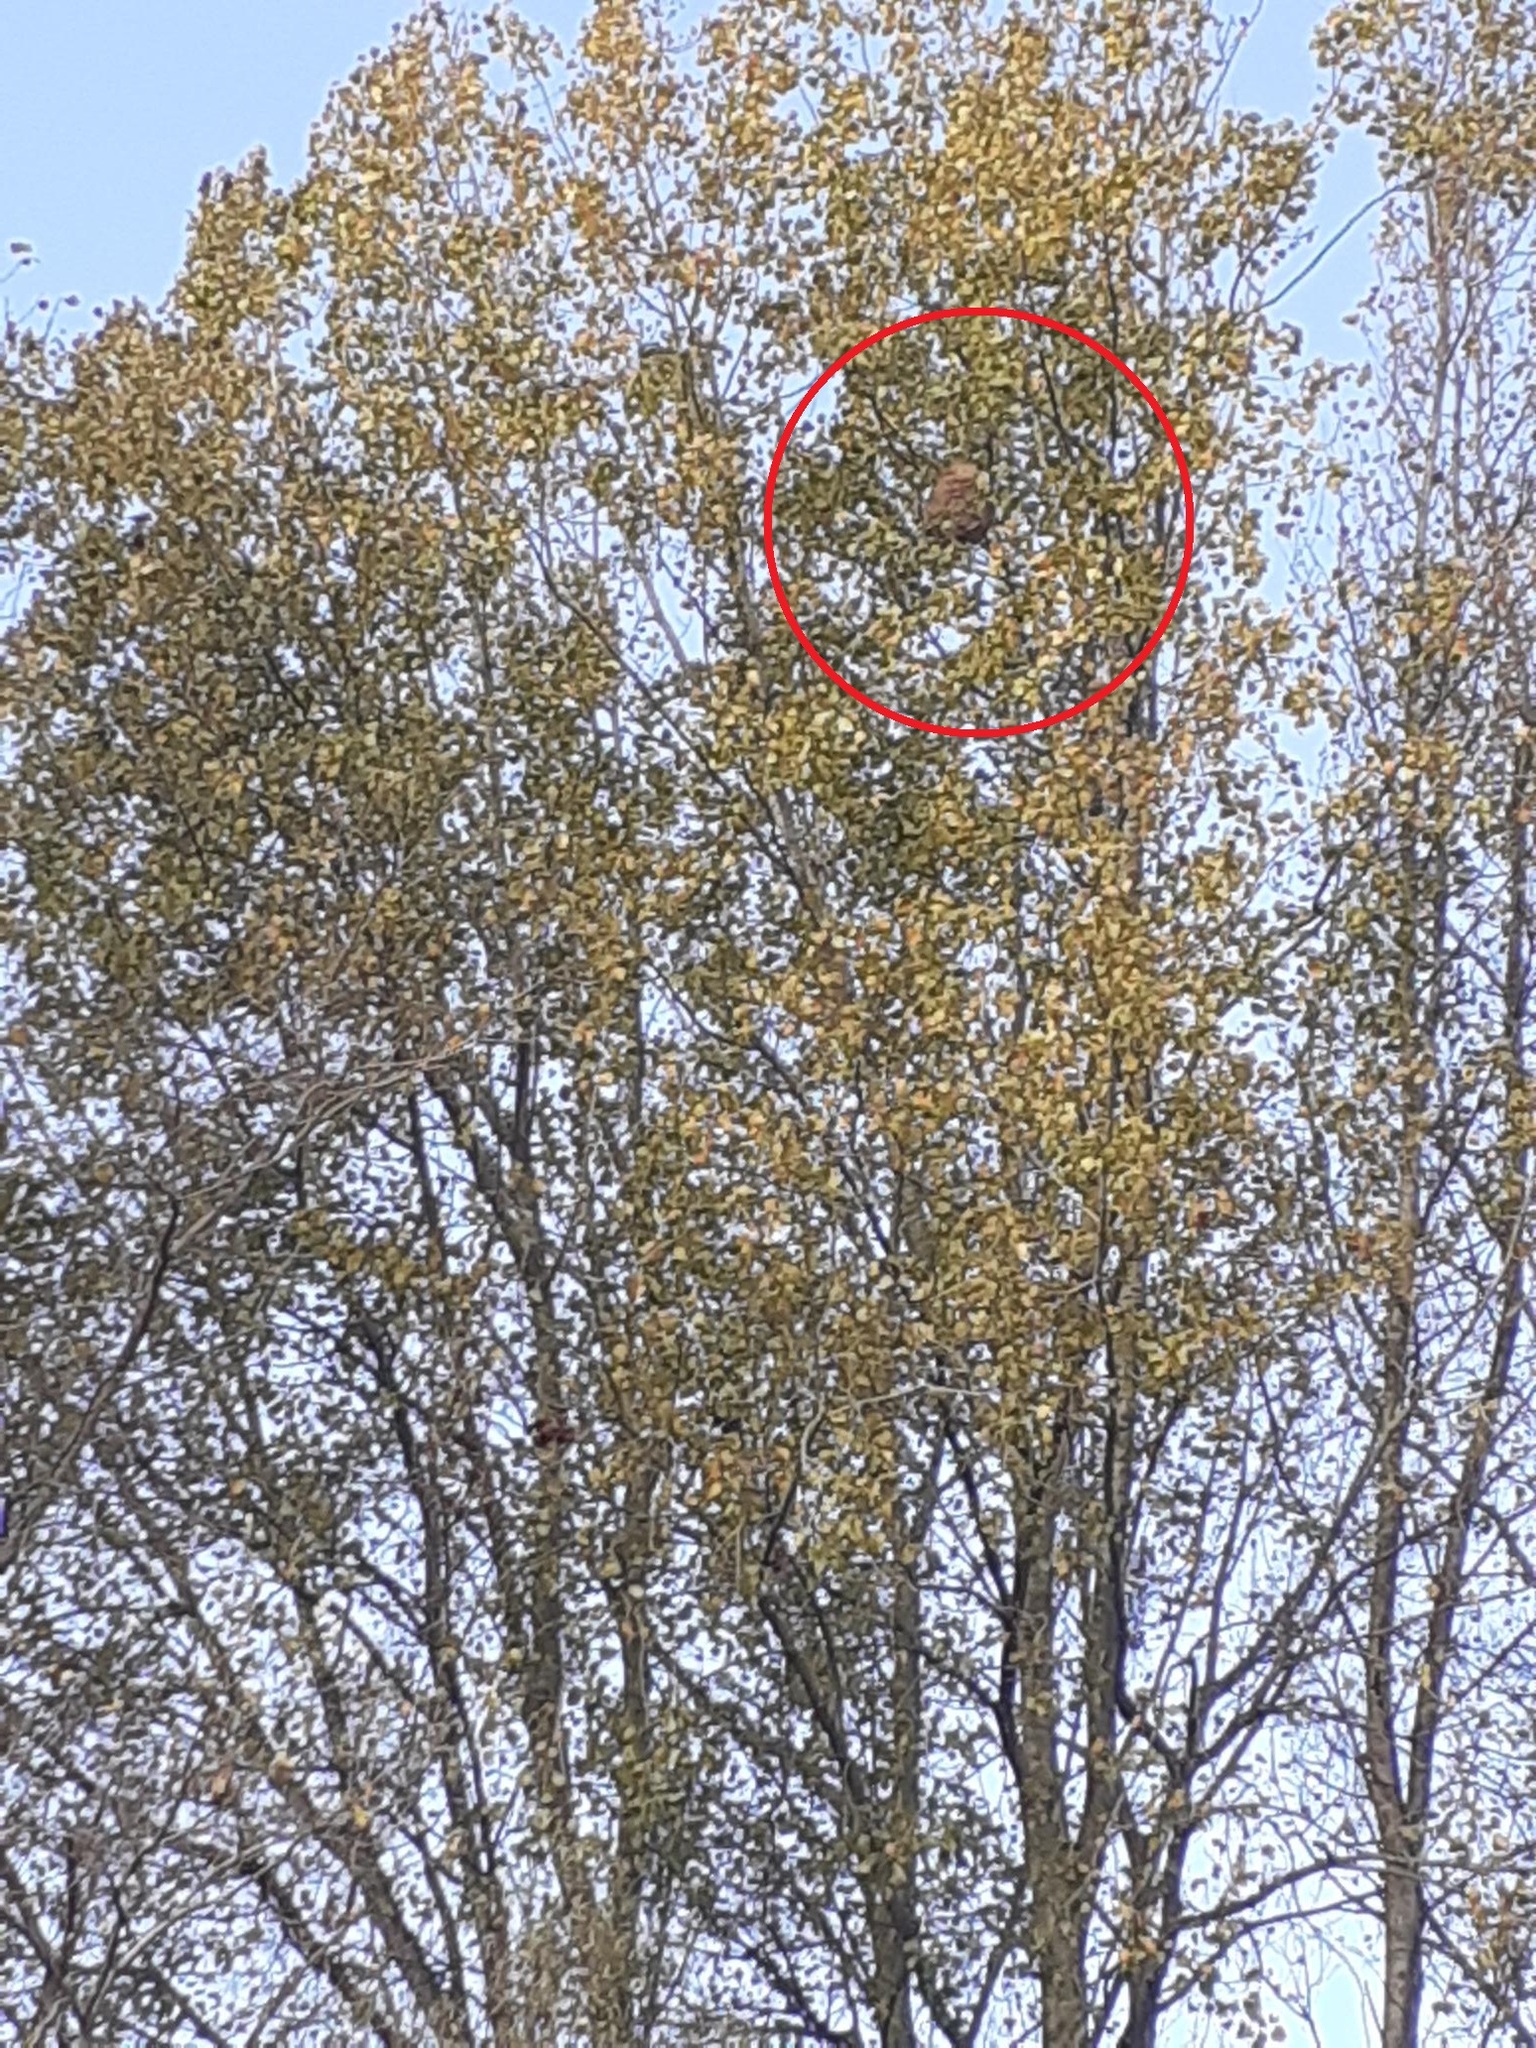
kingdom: Animalia
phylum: Arthropoda
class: Insecta
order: Hymenoptera
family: Vespidae
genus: Vespa
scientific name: Vespa velutina
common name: Asian hornet
